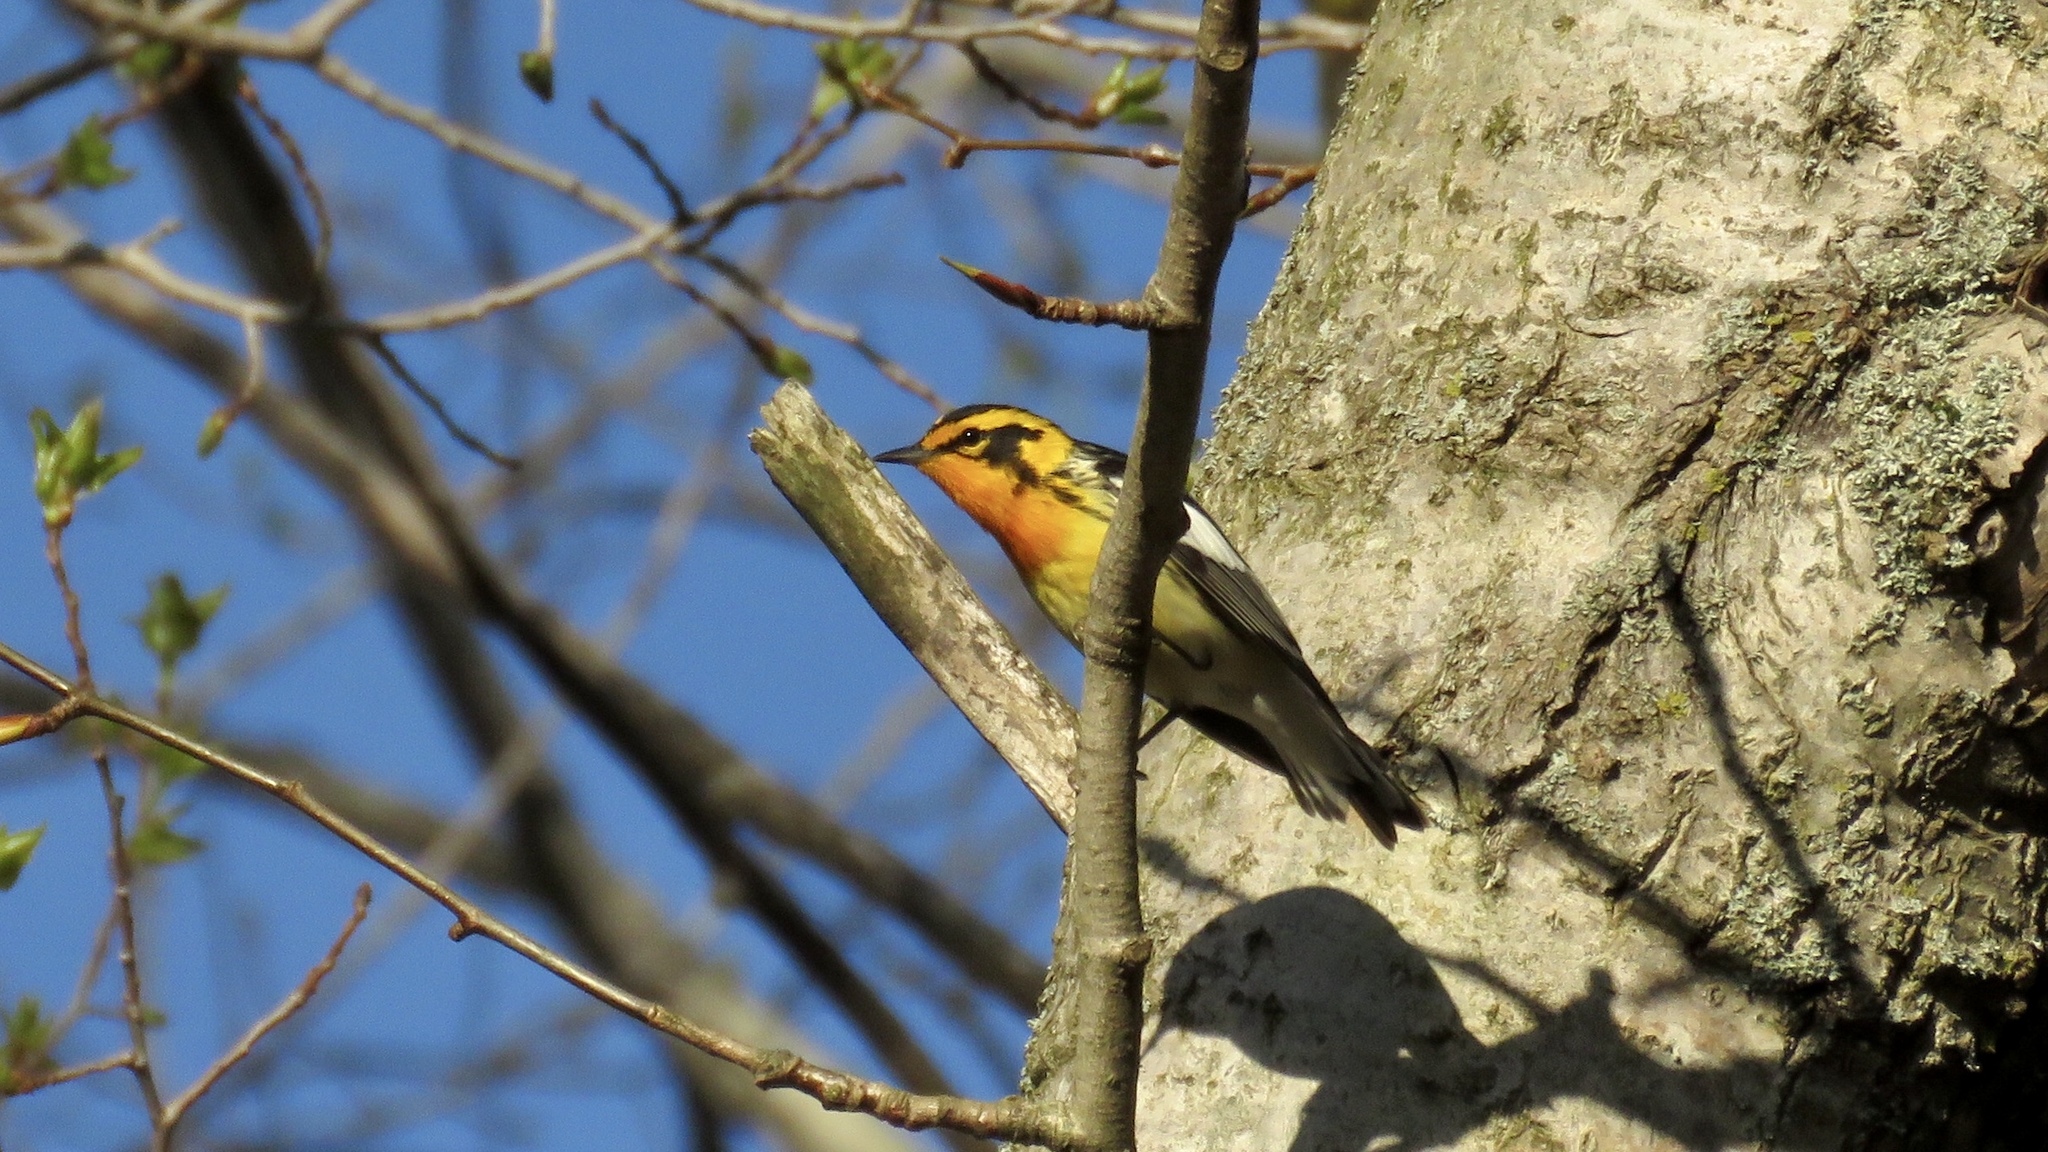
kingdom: Animalia
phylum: Chordata
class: Aves
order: Passeriformes
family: Parulidae
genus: Setophaga
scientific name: Setophaga fusca
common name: Blackburnian warbler
